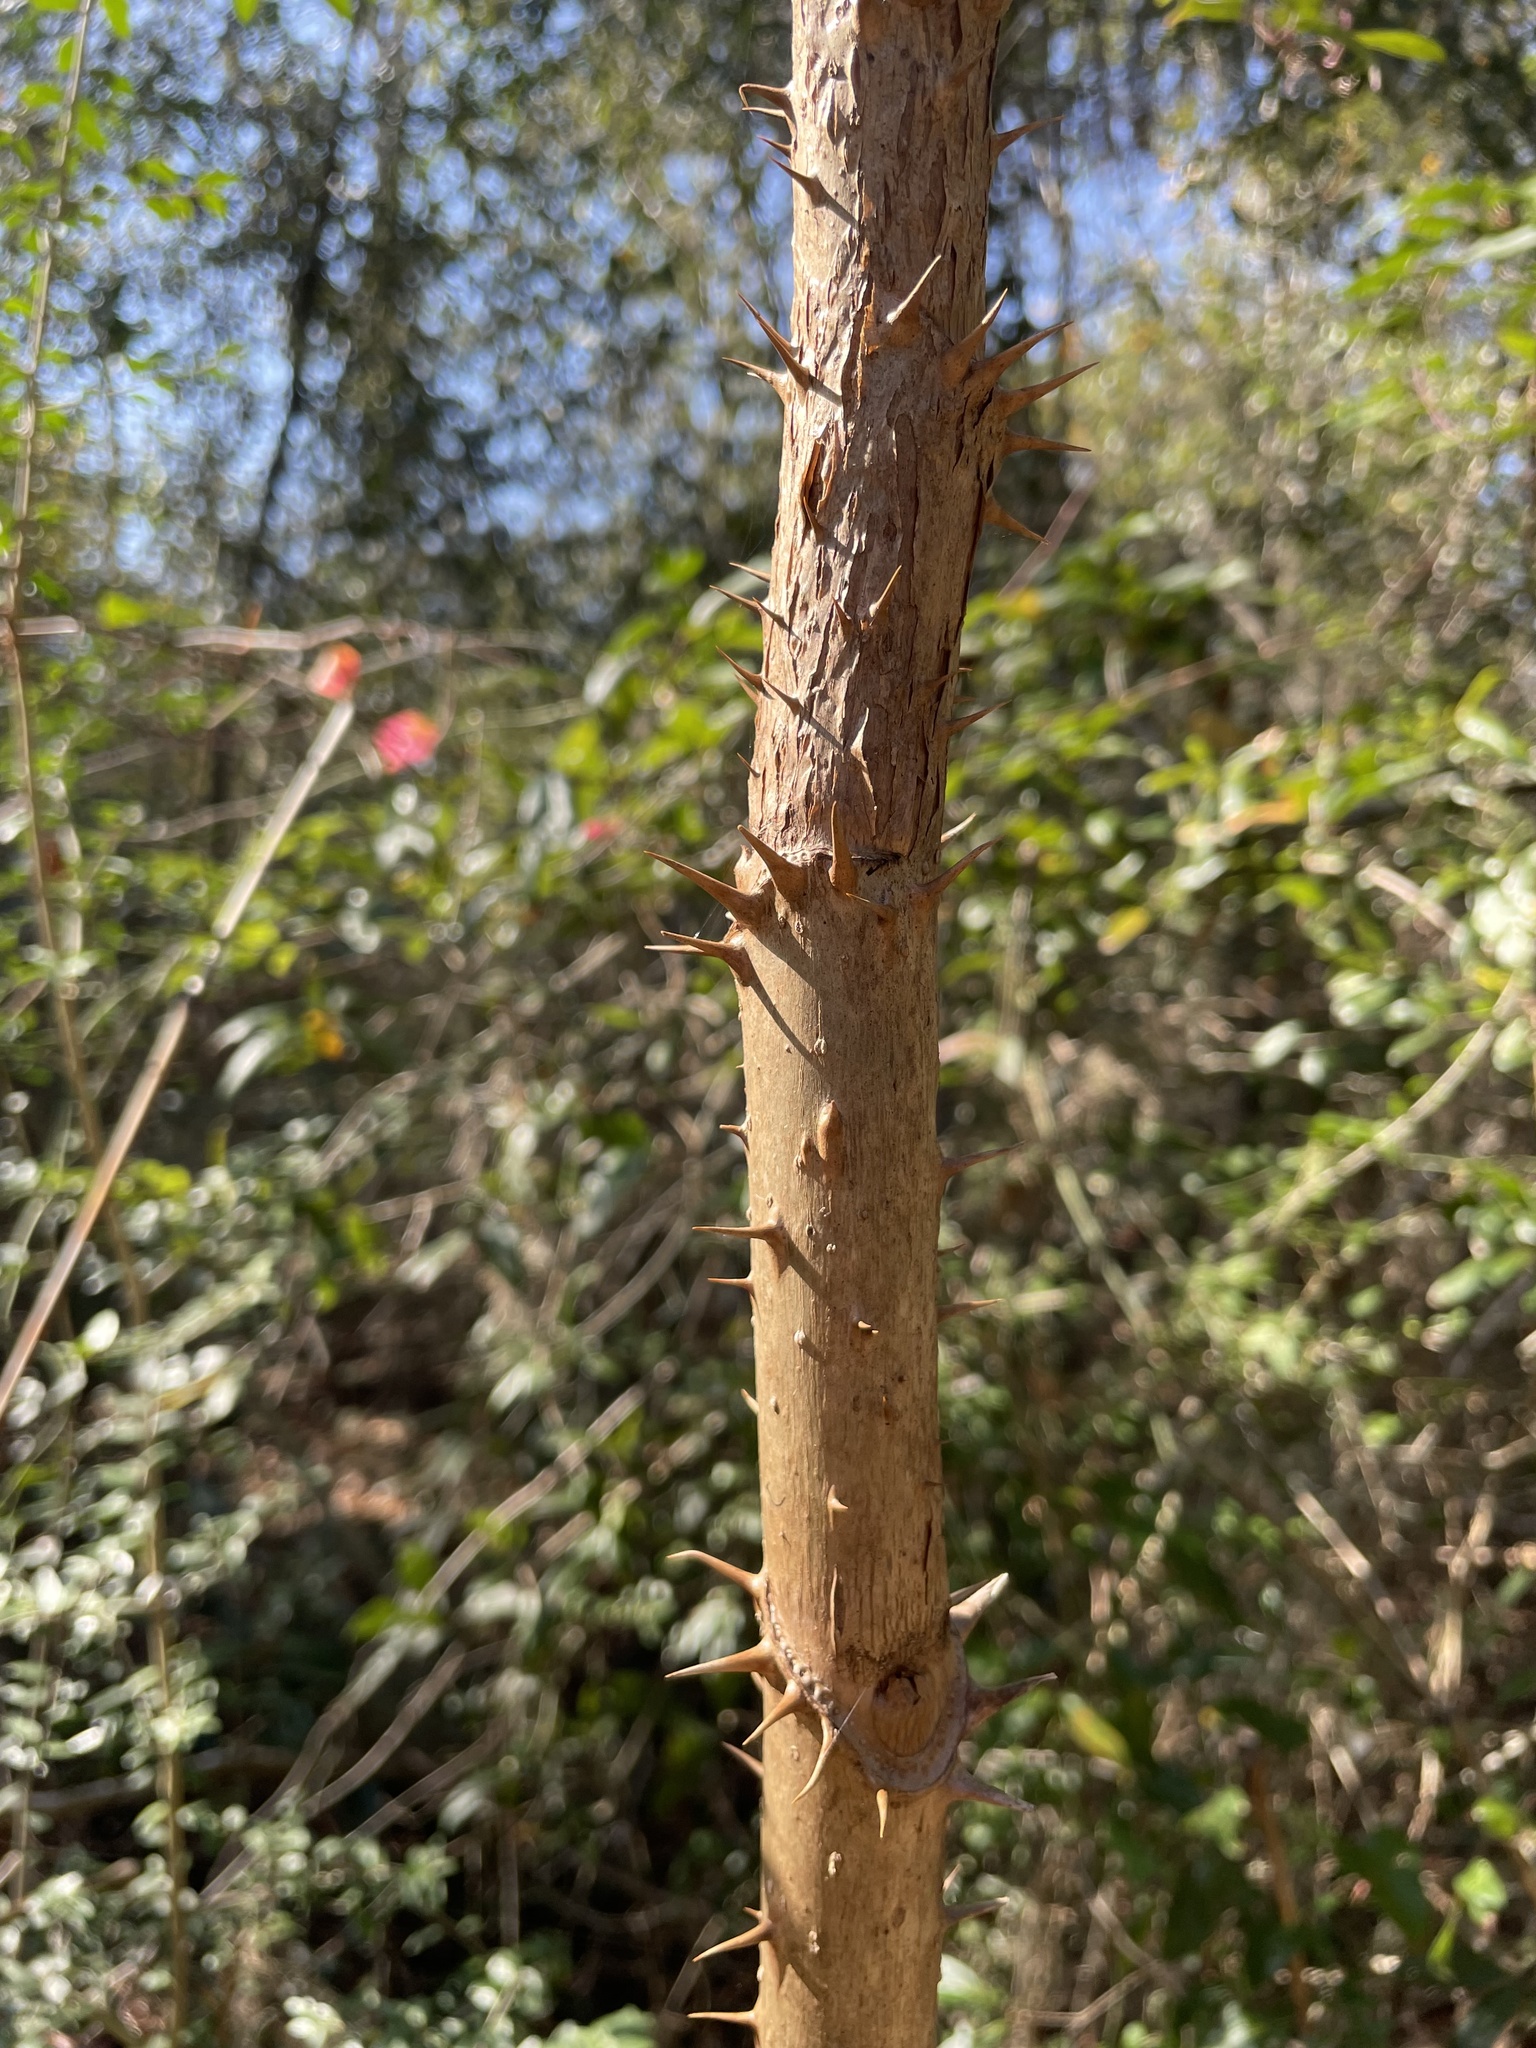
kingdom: Plantae
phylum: Tracheophyta
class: Magnoliopsida
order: Apiales
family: Araliaceae
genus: Aralia
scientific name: Aralia spinosa
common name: Hercules'-club
